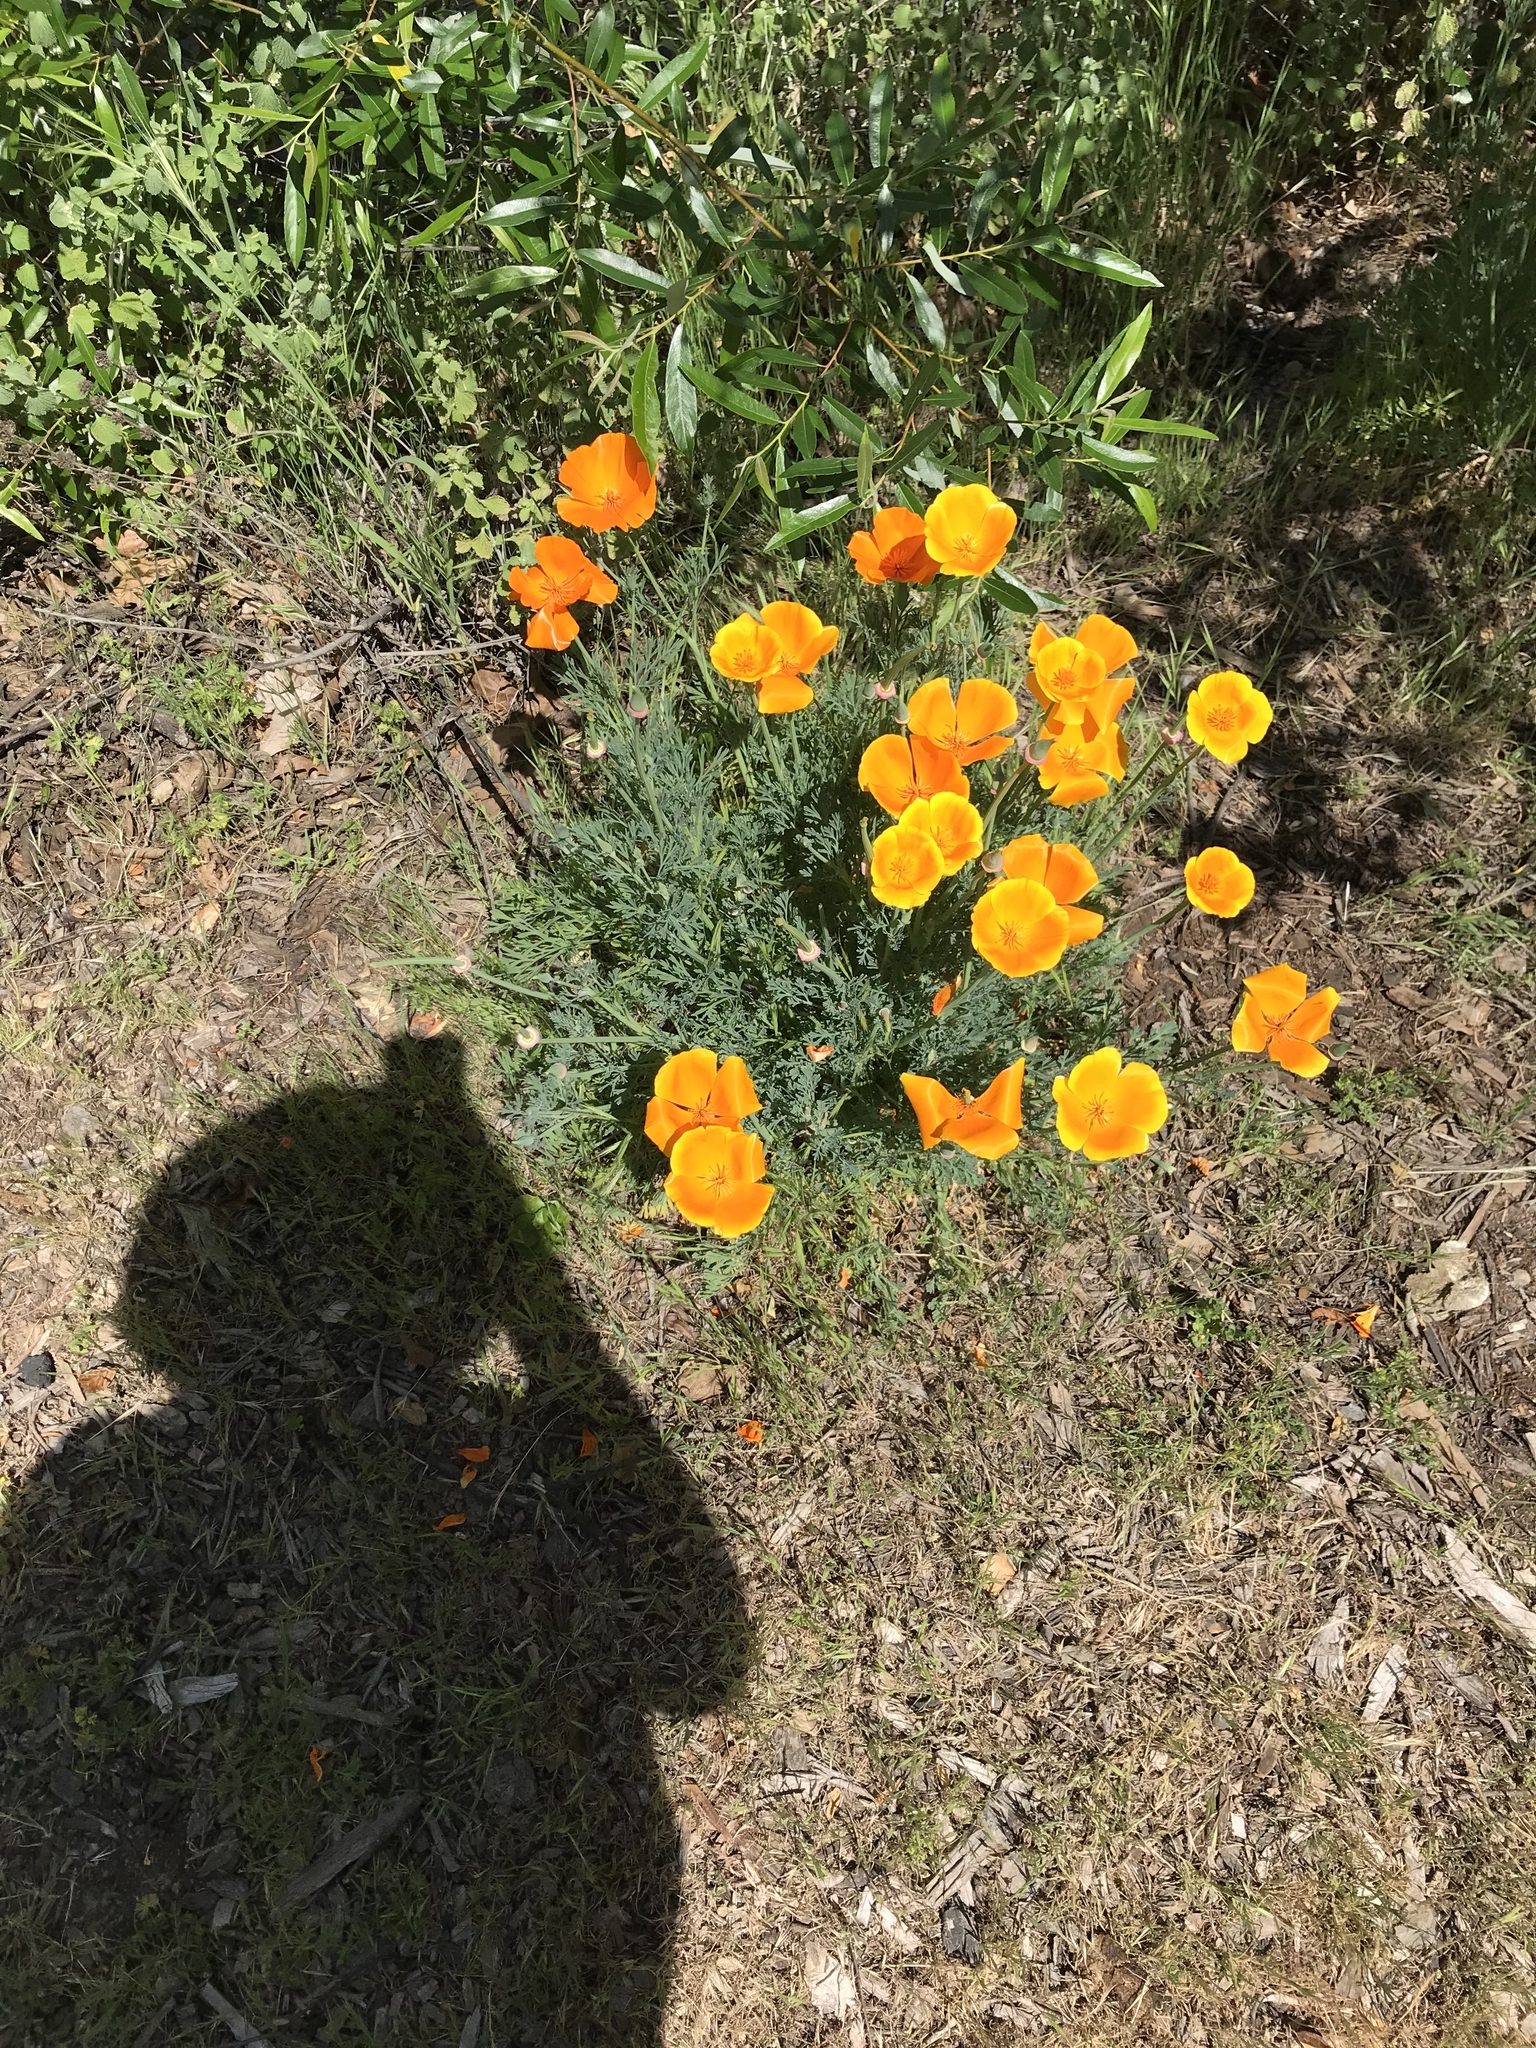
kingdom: Plantae
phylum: Tracheophyta
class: Magnoliopsida
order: Ranunculales
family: Papaveraceae
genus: Eschscholzia
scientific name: Eschscholzia californica
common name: California poppy
